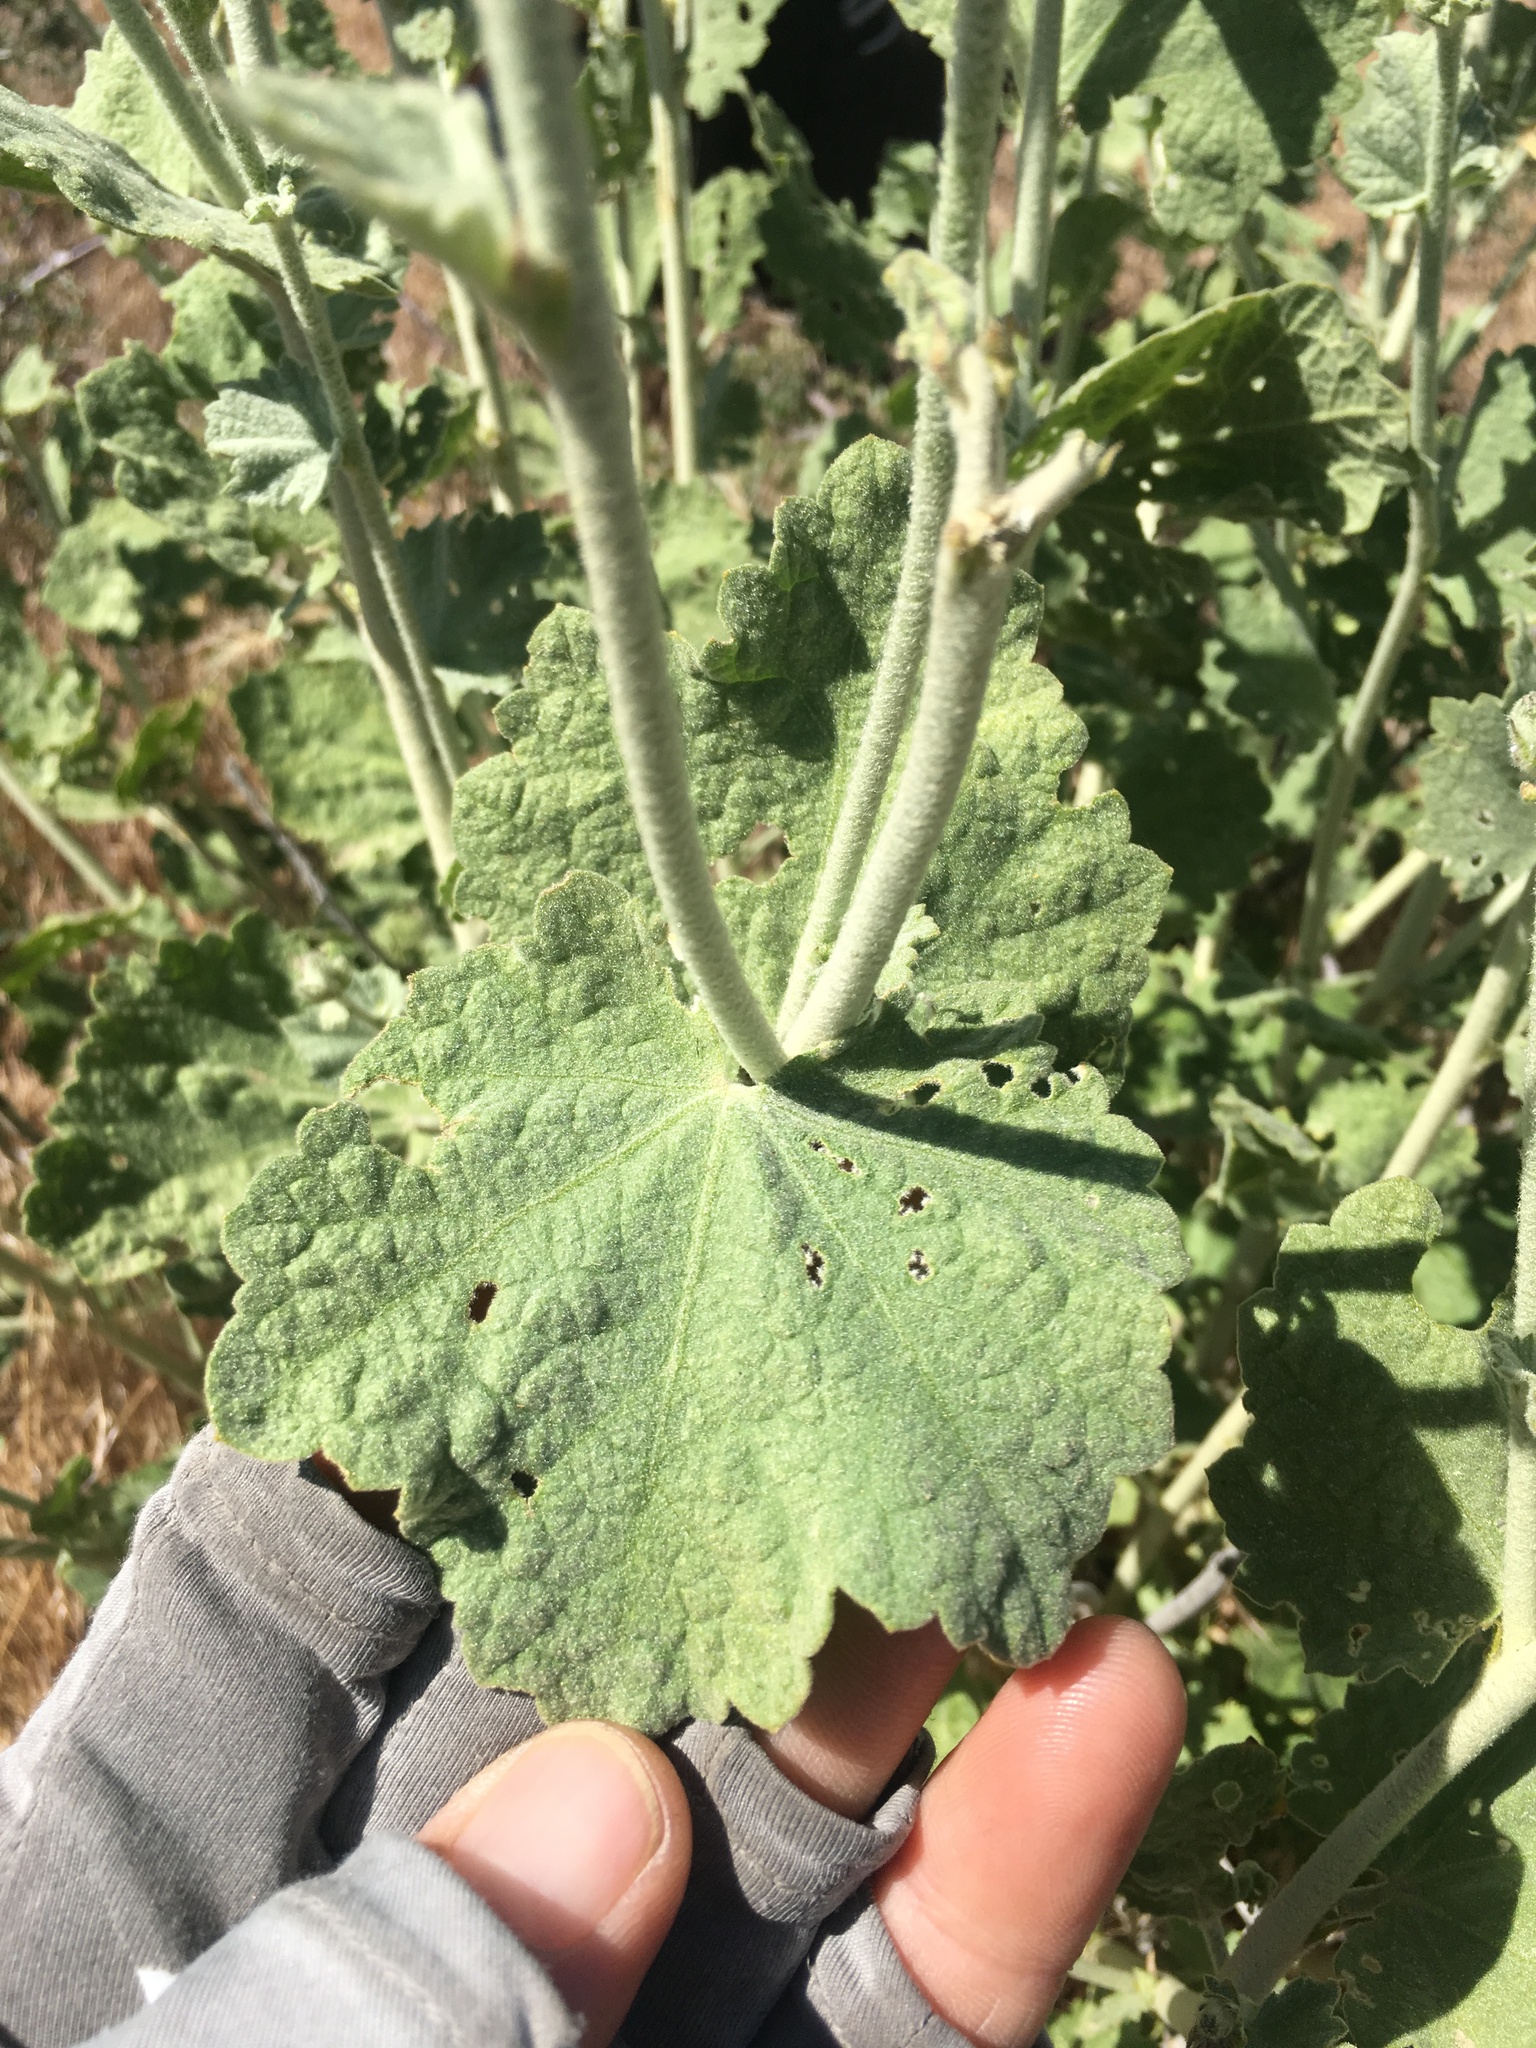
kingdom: Plantae
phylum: Tracheophyta
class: Magnoliopsida
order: Malvales
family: Malvaceae
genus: Malacothamnus
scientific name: Malacothamnus fremontii
